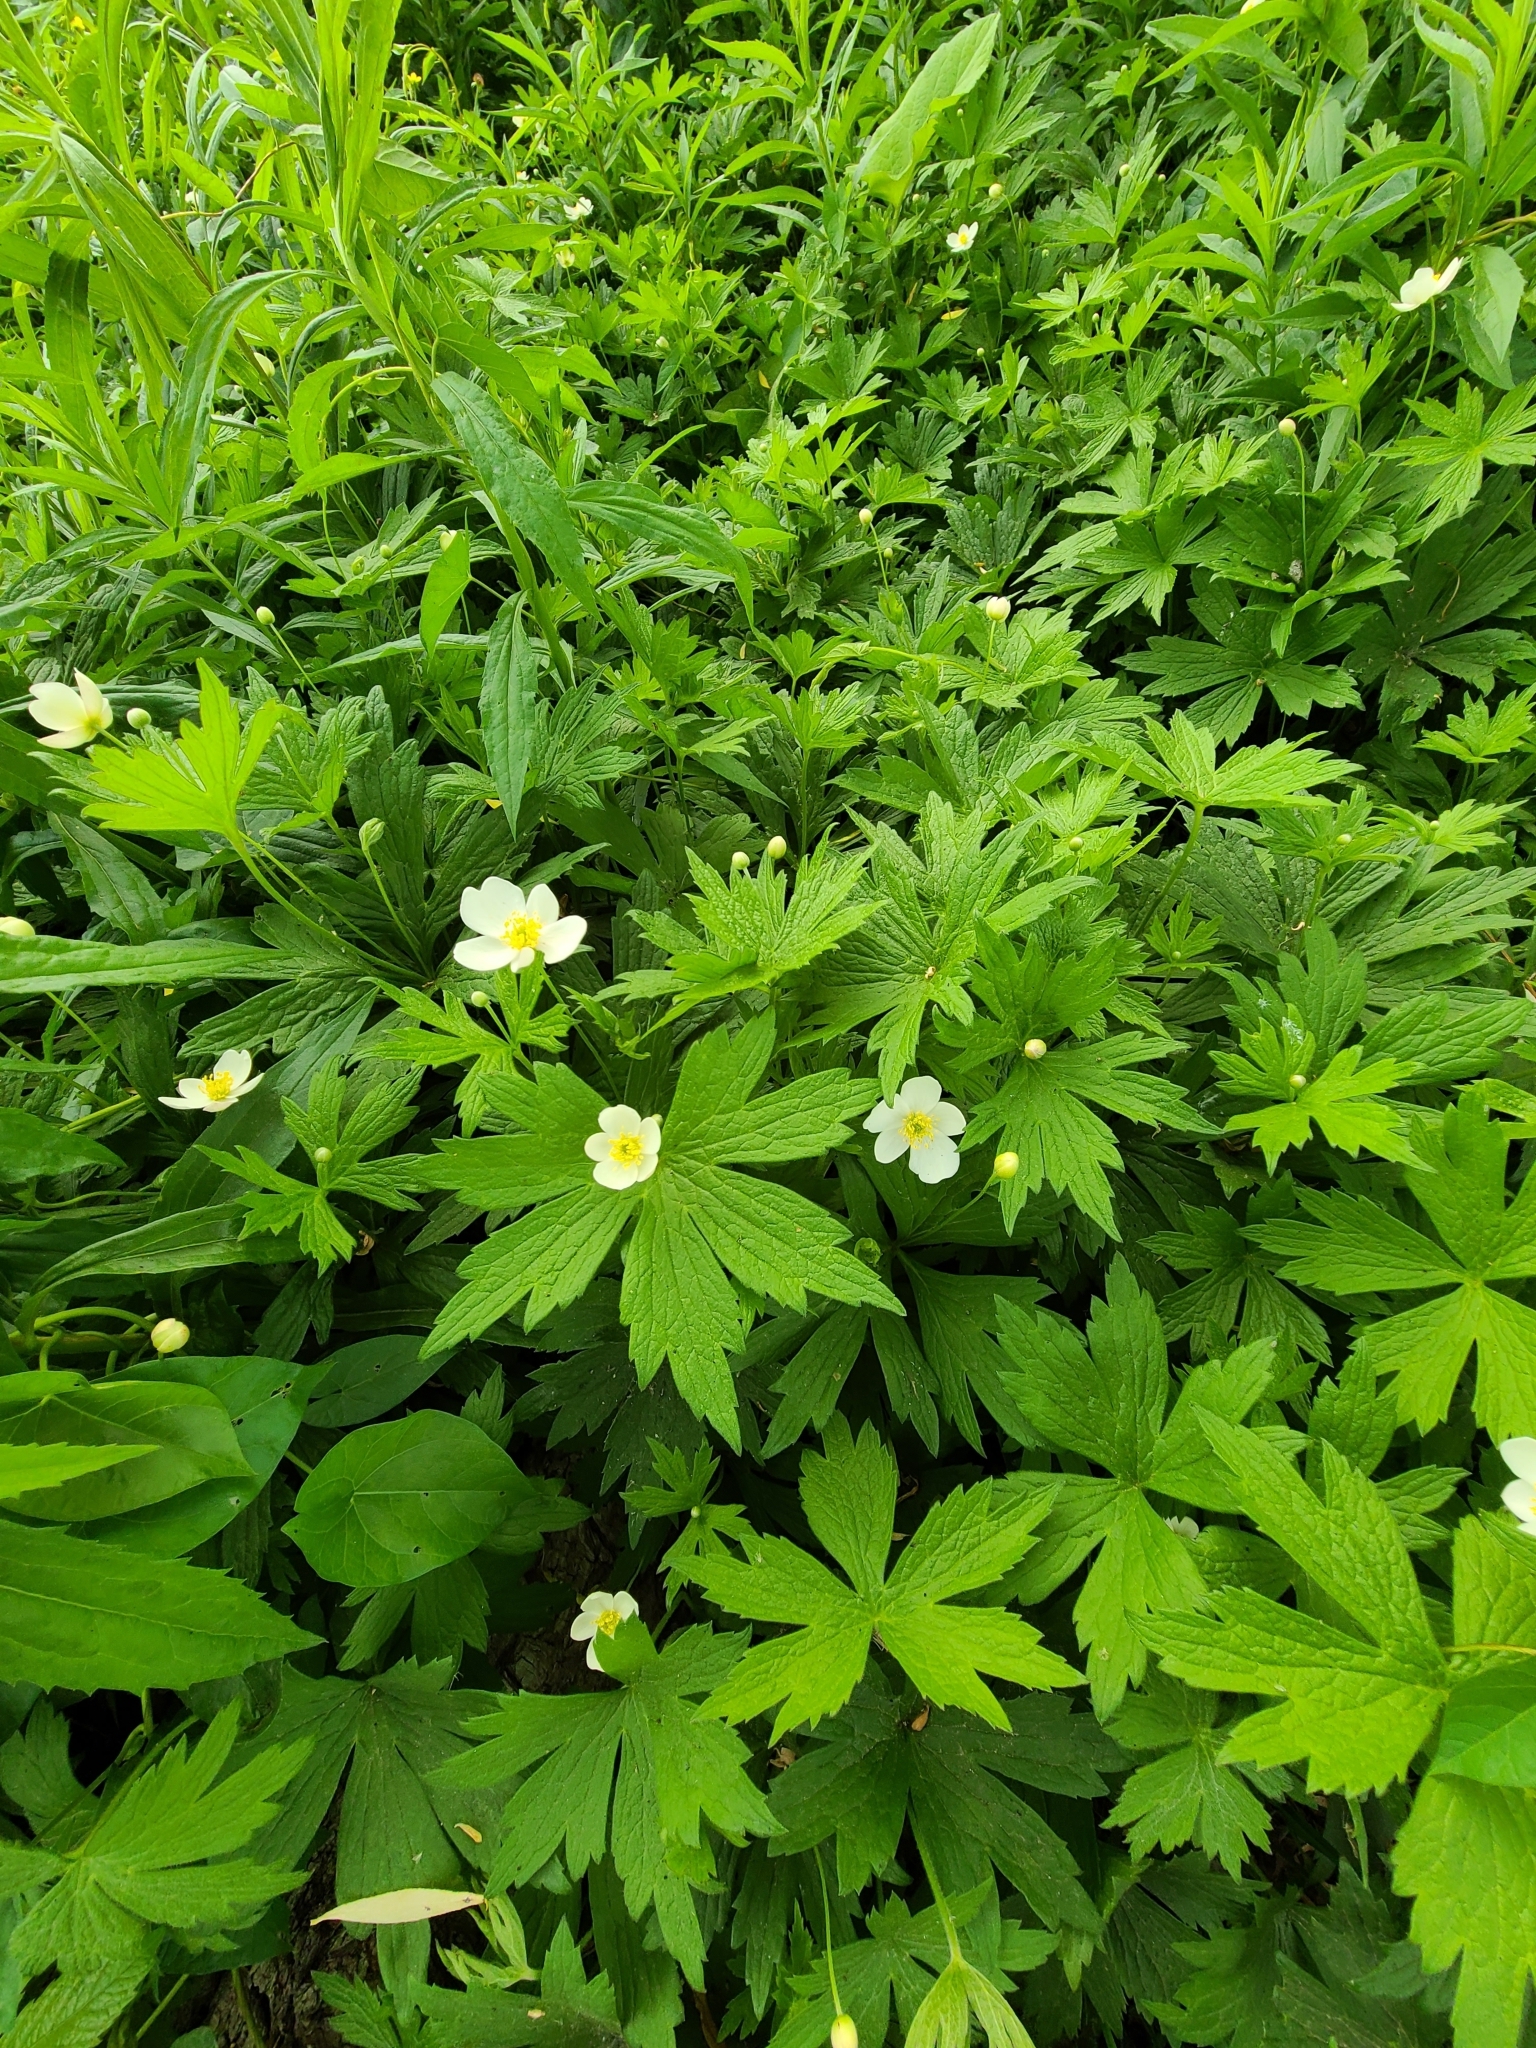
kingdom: Plantae
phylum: Tracheophyta
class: Magnoliopsida
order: Ranunculales
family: Ranunculaceae
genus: Anemonastrum
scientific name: Anemonastrum canadense
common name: Canada anemone
